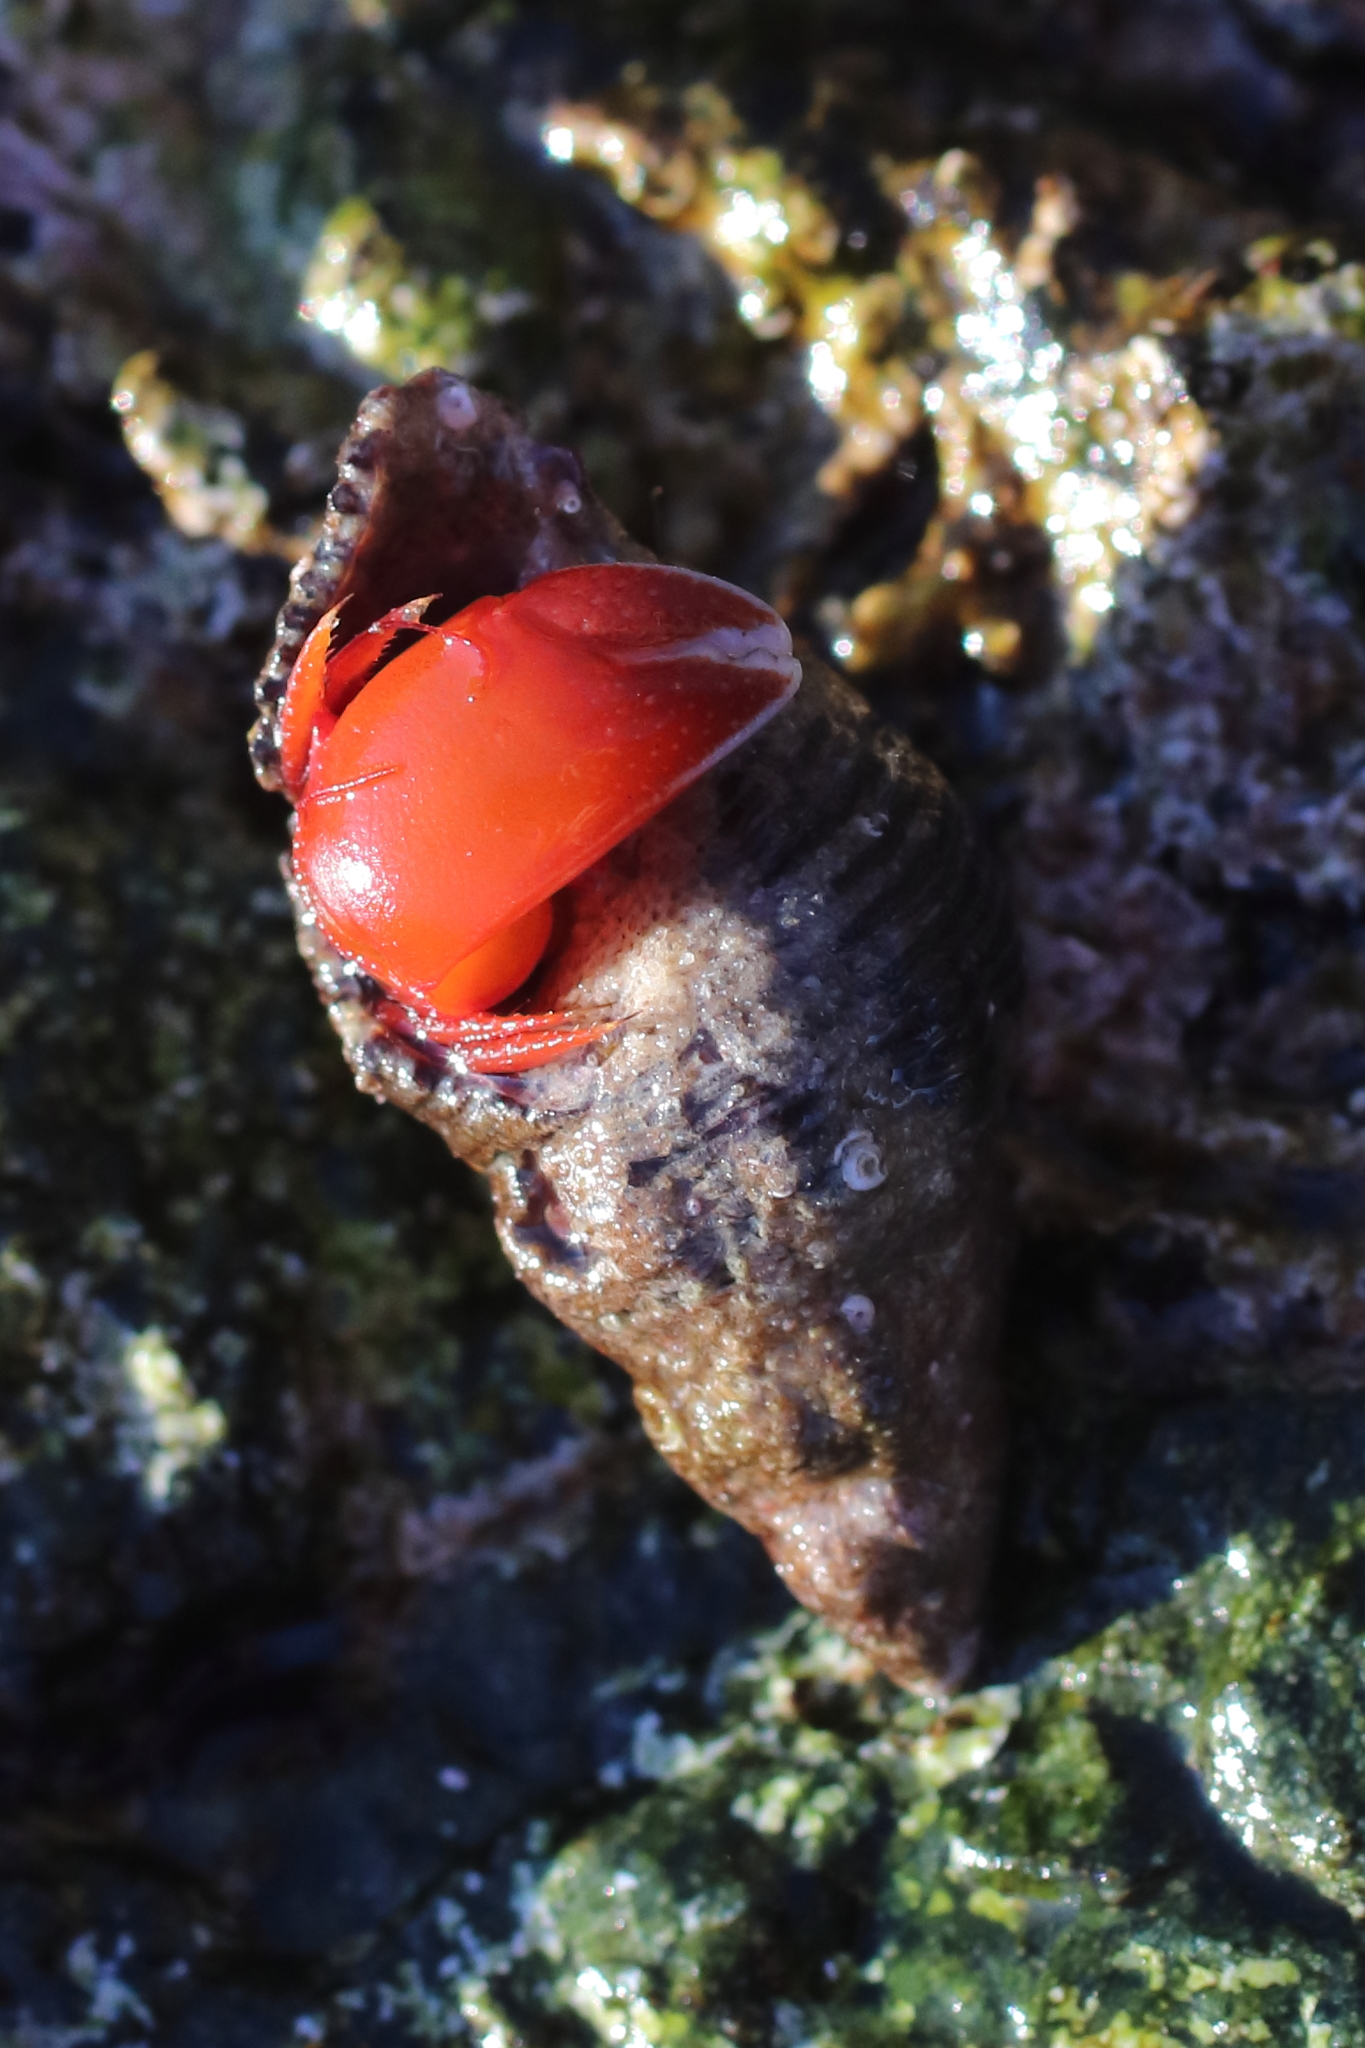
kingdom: Animalia
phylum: Arthropoda
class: Malacostraca
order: Decapoda
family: Paguridae
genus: Elassochirus
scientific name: Elassochirus gilli
